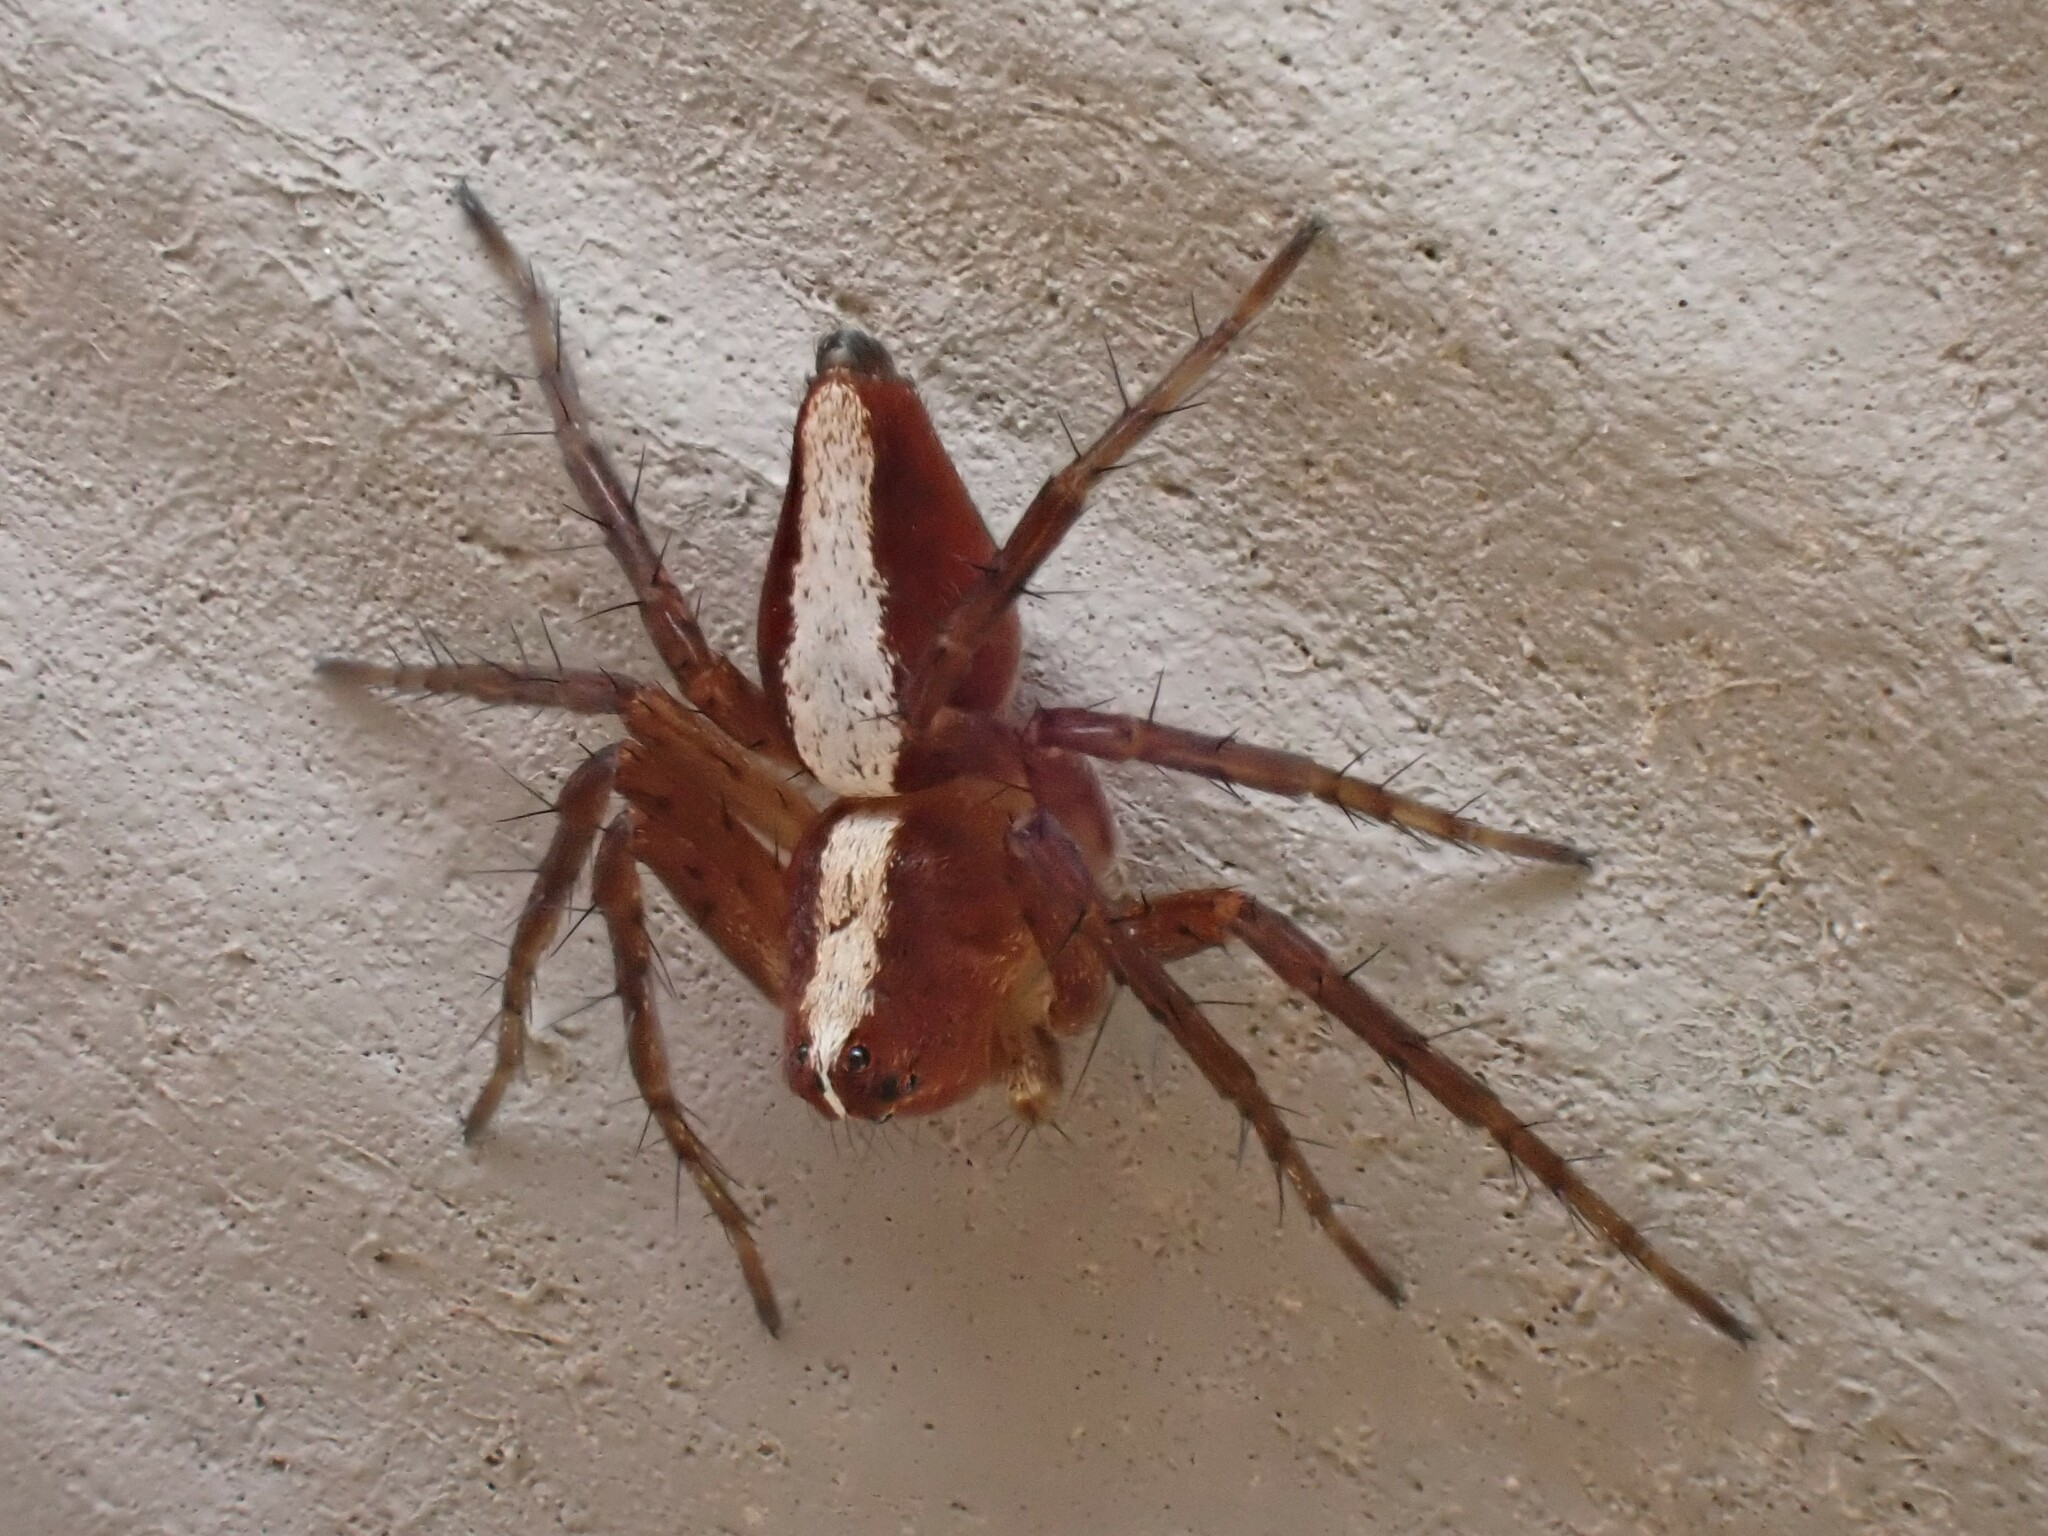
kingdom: Animalia
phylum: Arthropoda
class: Arachnida
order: Araneae
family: Oxyopidae
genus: Oxyopes
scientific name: Oxyopes scalaris
